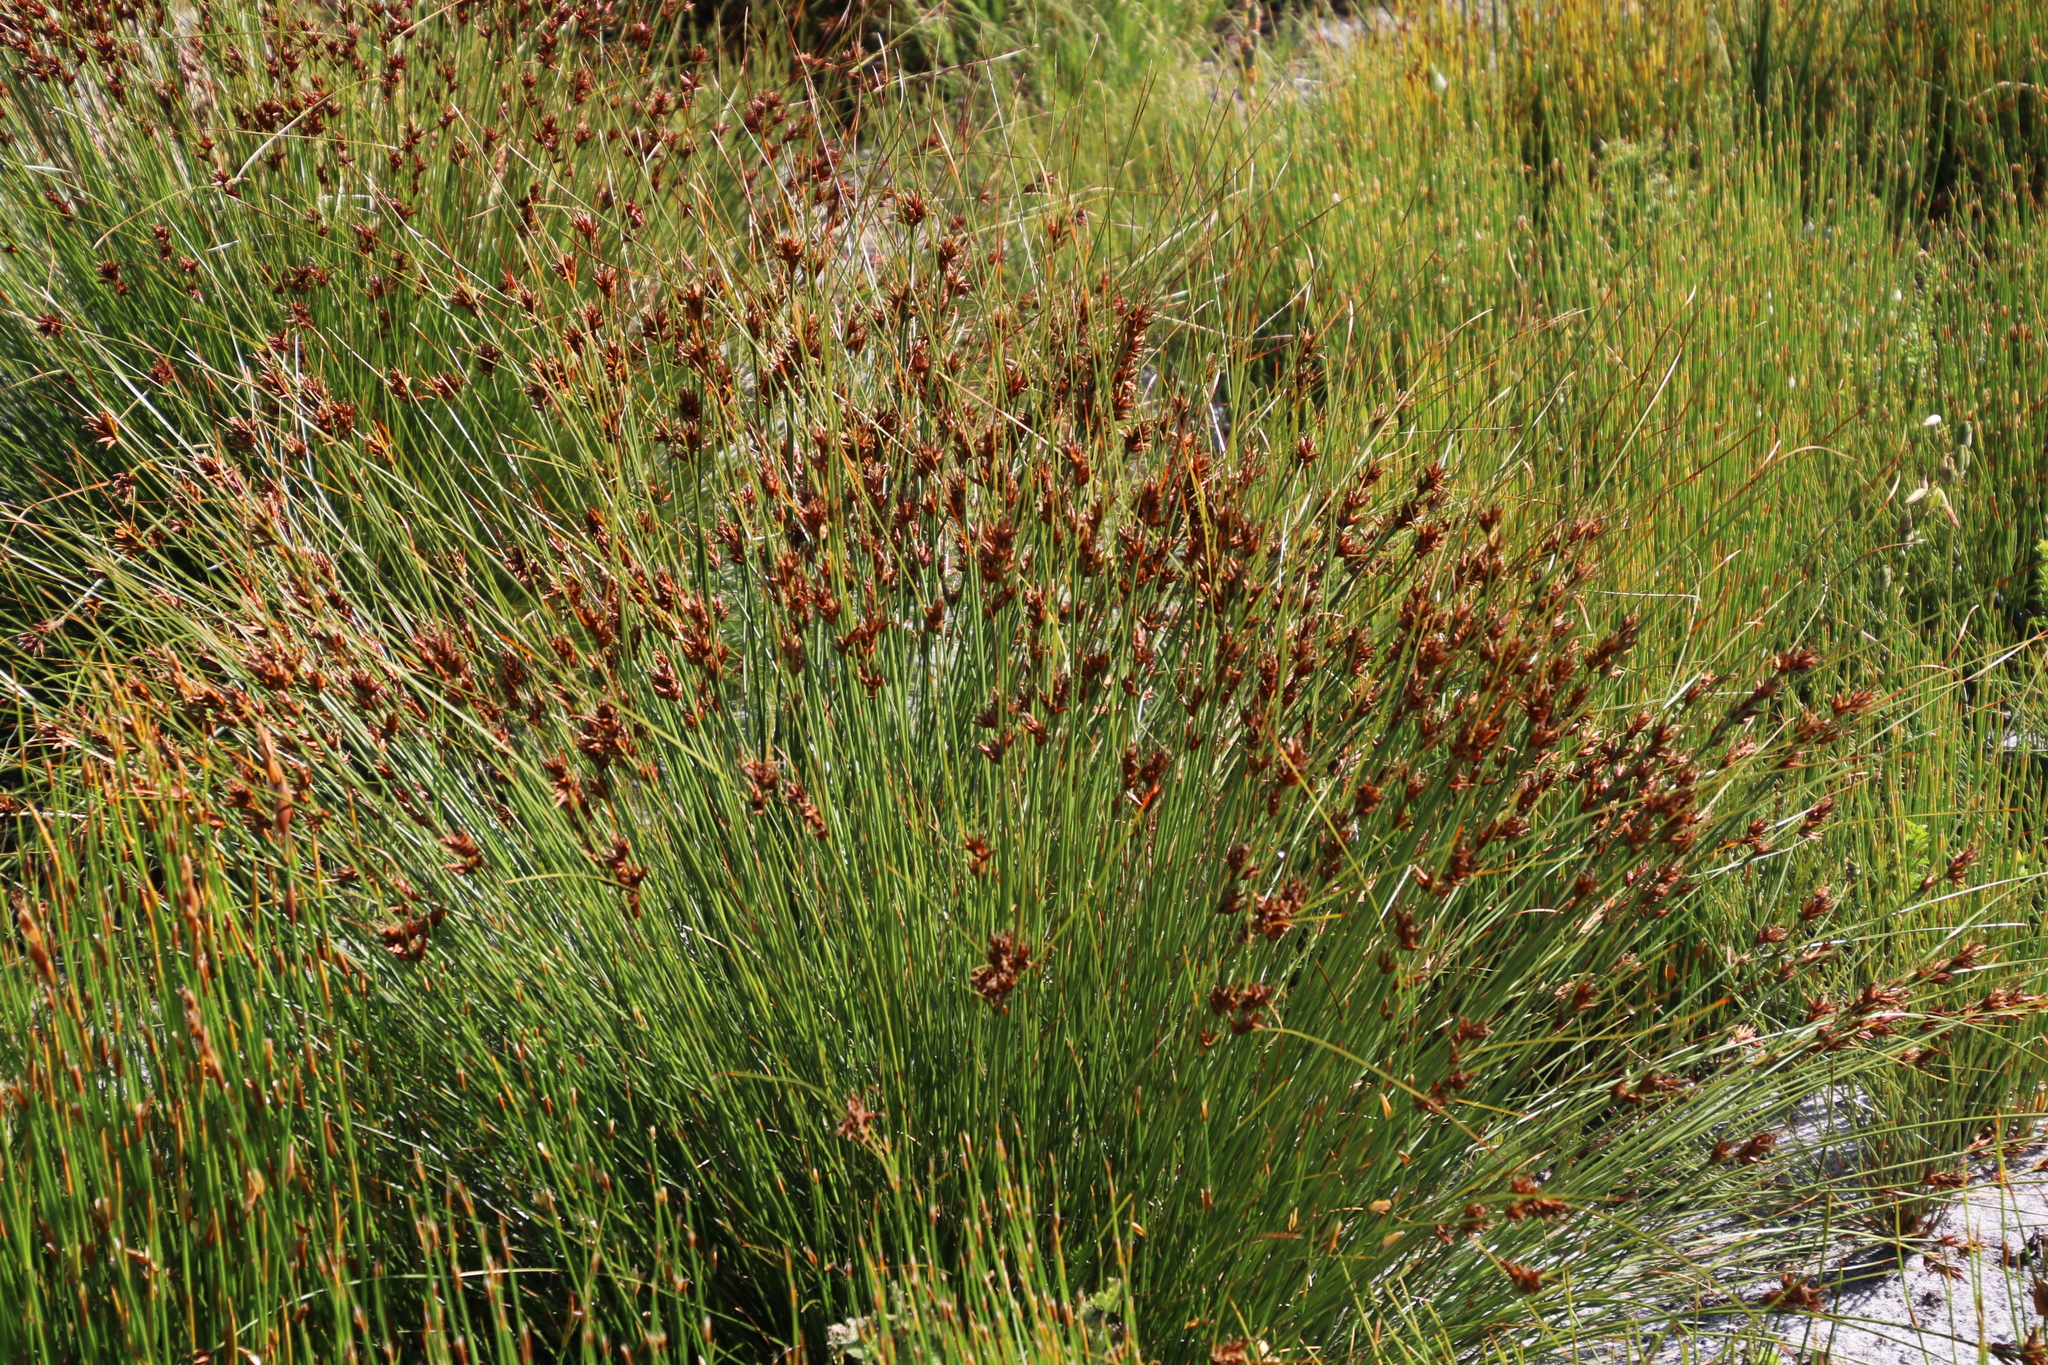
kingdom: Plantae
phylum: Tracheophyta
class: Liliopsida
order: Poales
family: Cyperaceae
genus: Schoenus
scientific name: Schoenus compar
